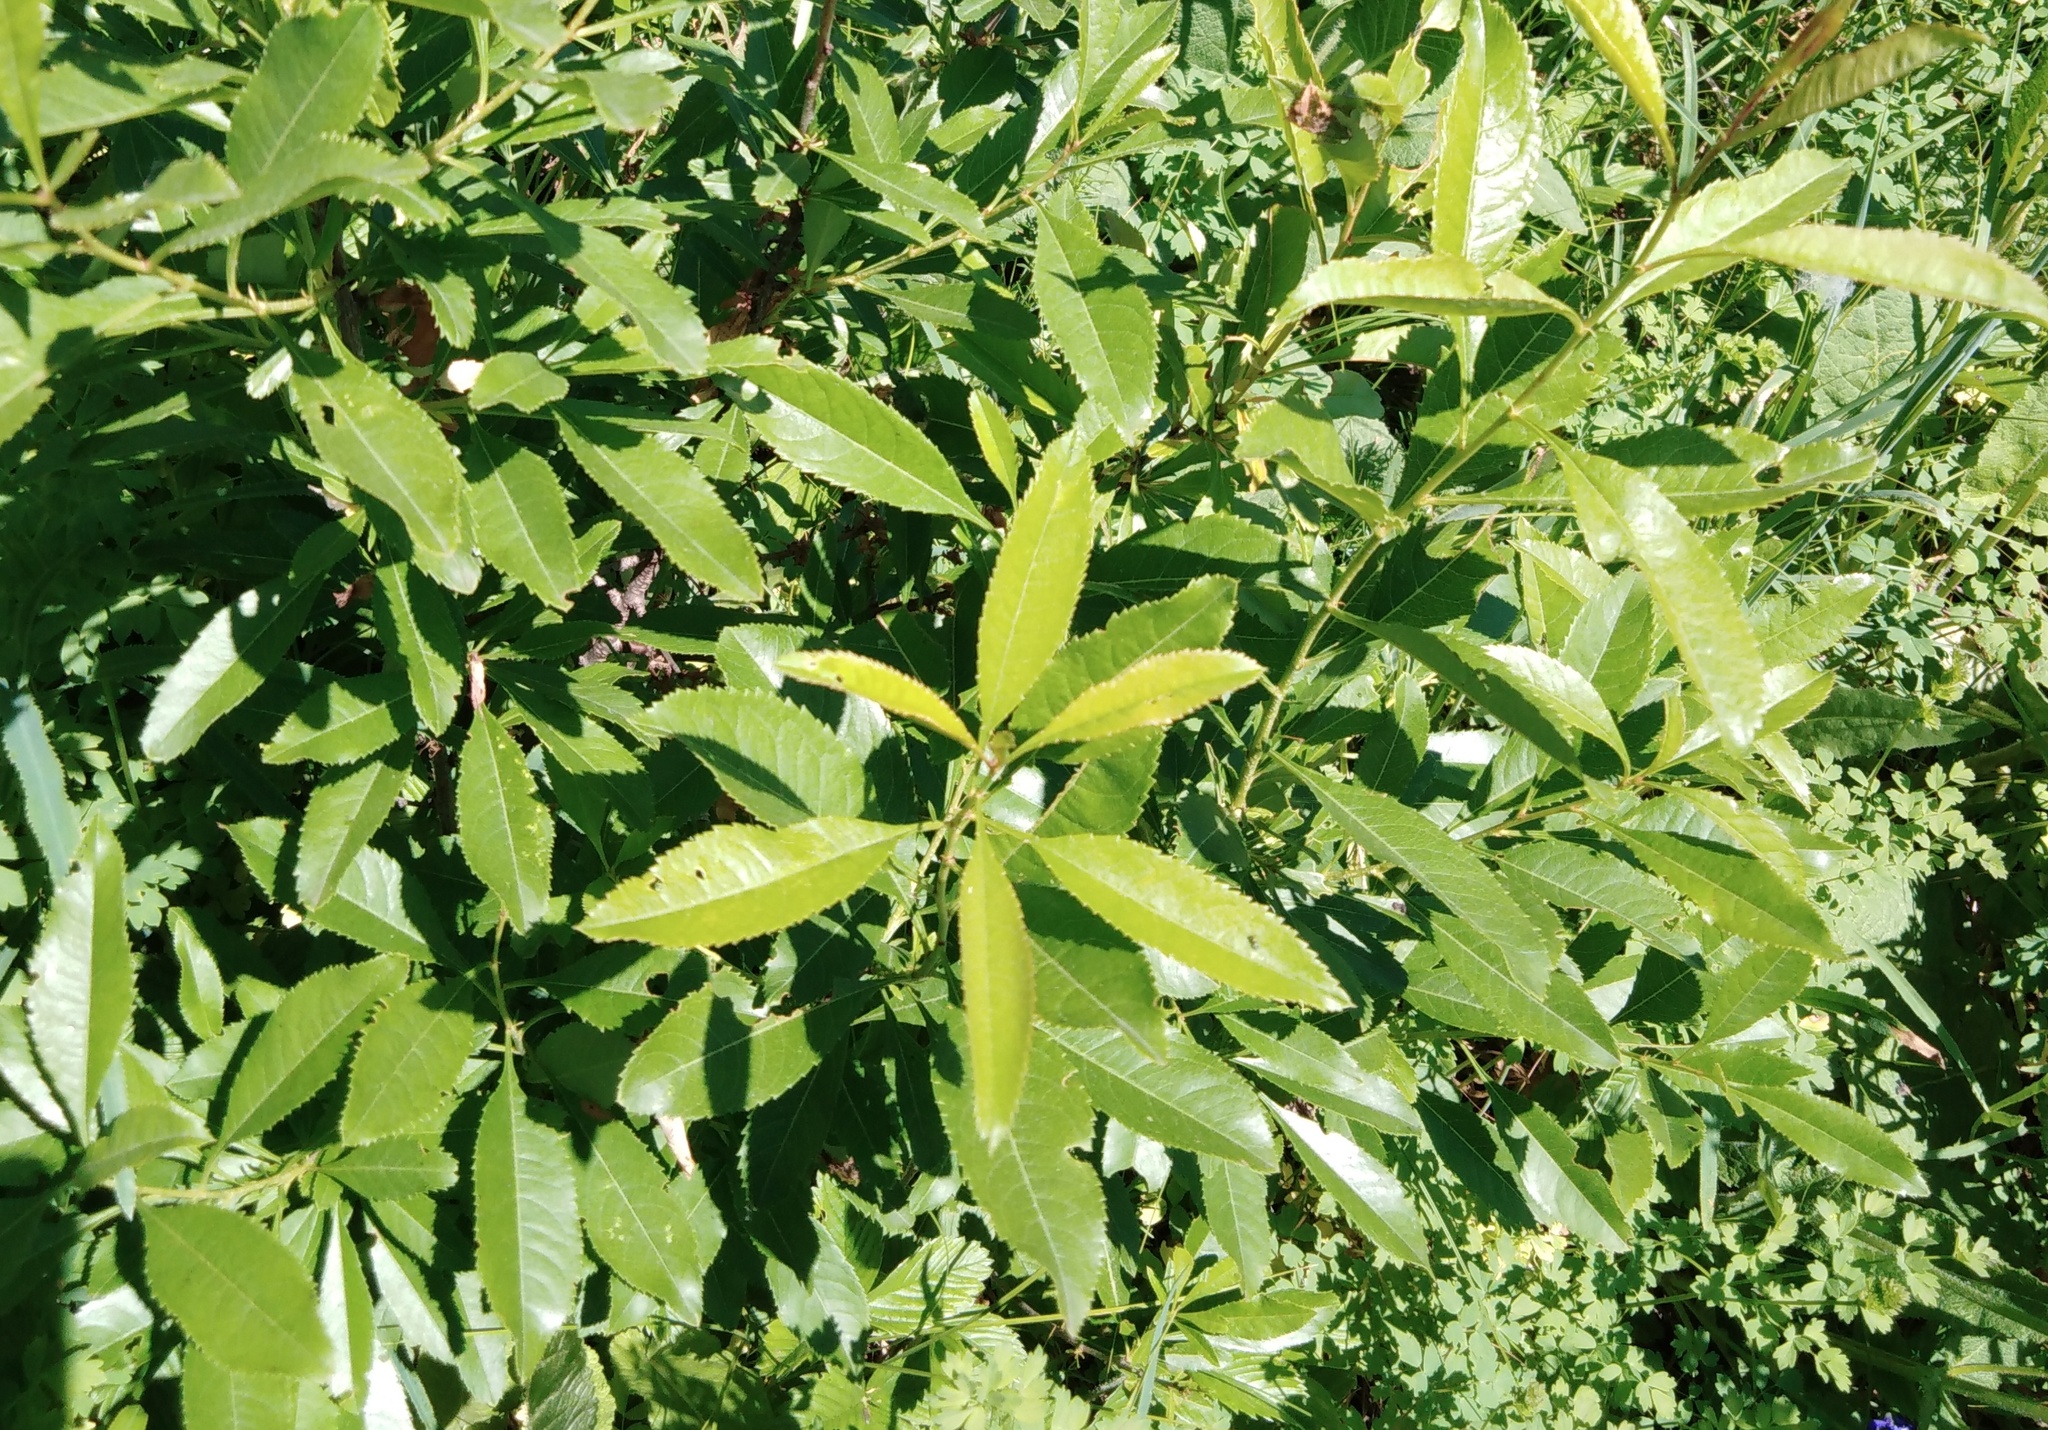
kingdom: Plantae
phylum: Tracheophyta
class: Magnoliopsida
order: Rosales
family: Rosaceae
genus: Prunus
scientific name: Prunus tenella
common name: Dwarf russian almond
